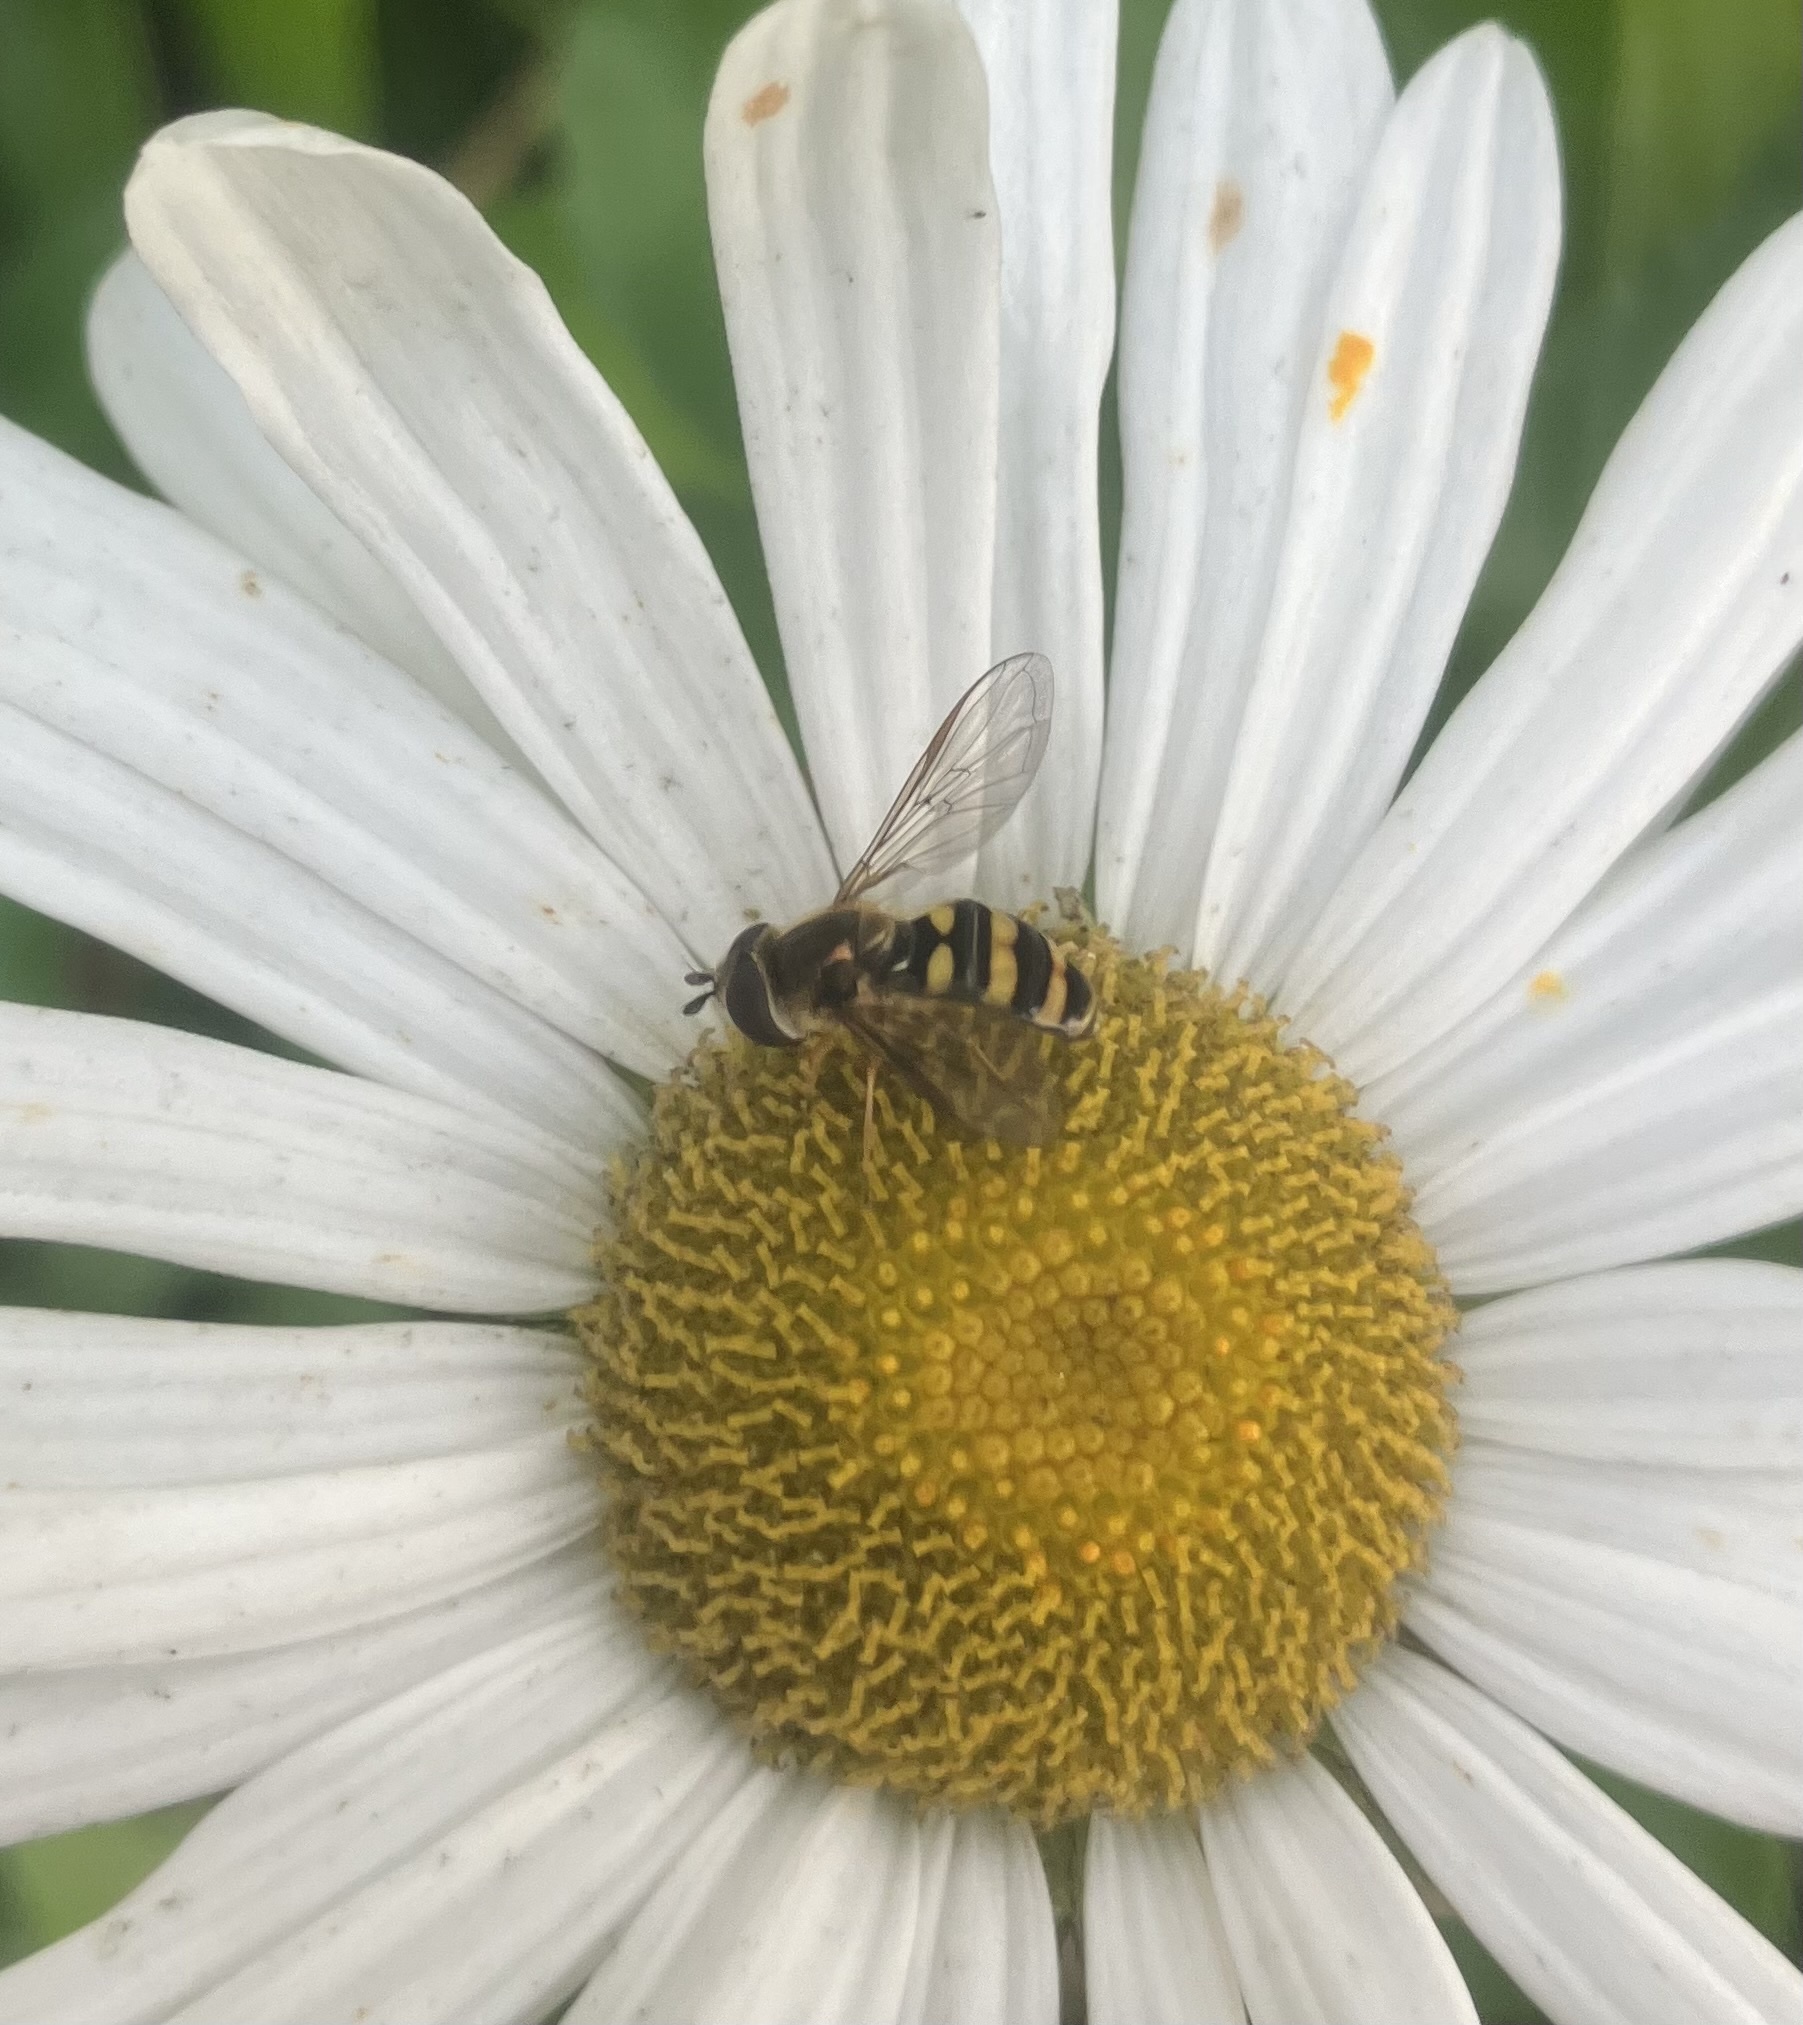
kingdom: Animalia
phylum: Arthropoda
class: Insecta
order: Diptera
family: Syrphidae
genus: Eupeodes
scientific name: Eupeodes
